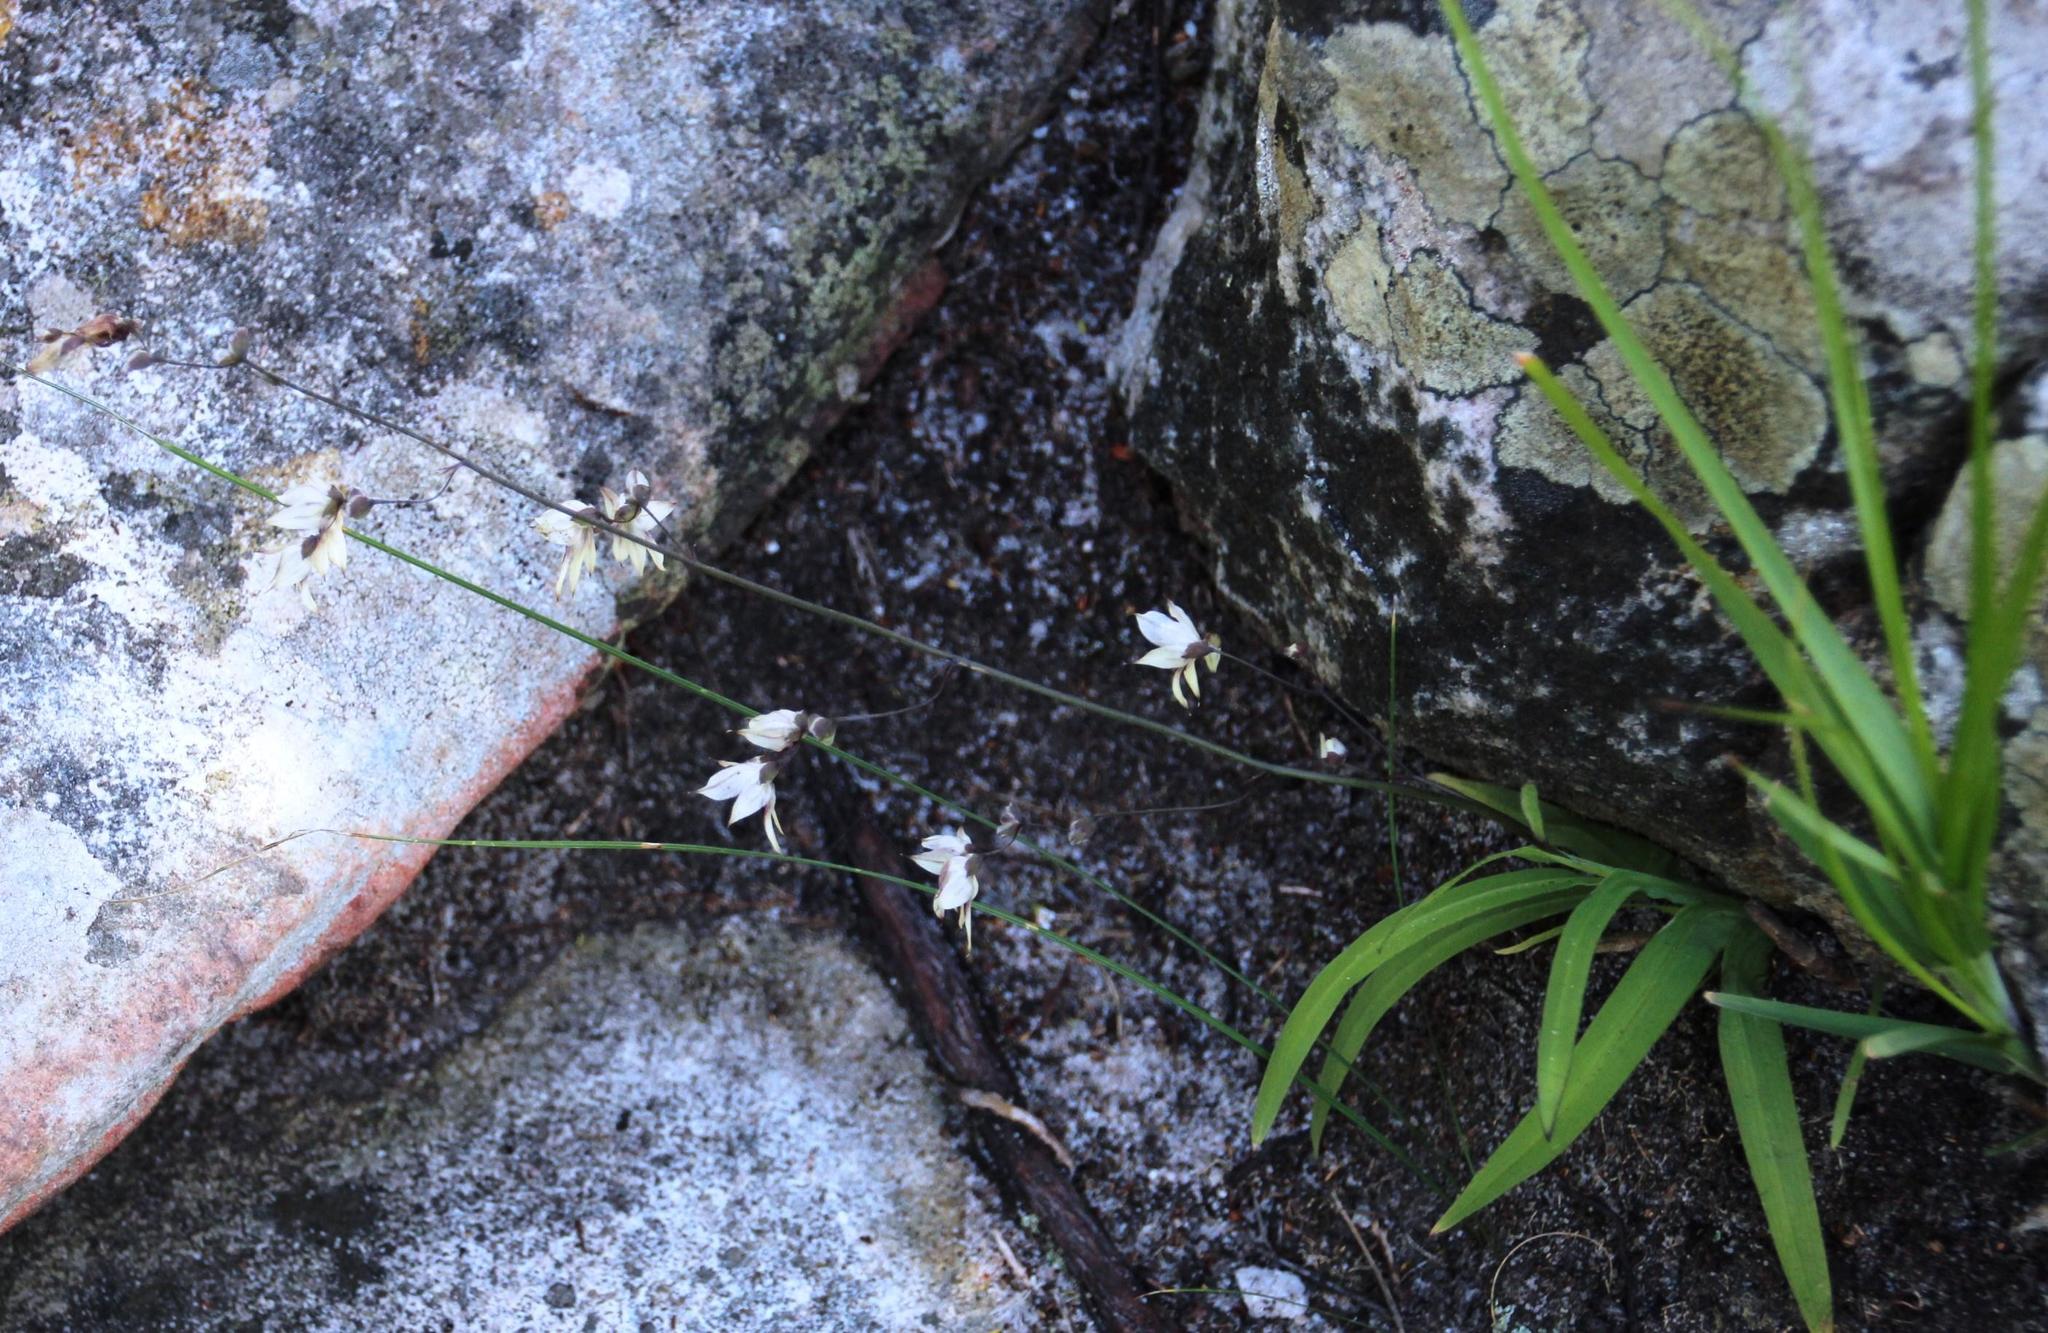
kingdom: Plantae
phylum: Tracheophyta
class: Liliopsida
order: Asparagales
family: Iridaceae
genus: Melasphaerula
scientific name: Melasphaerula graminea
